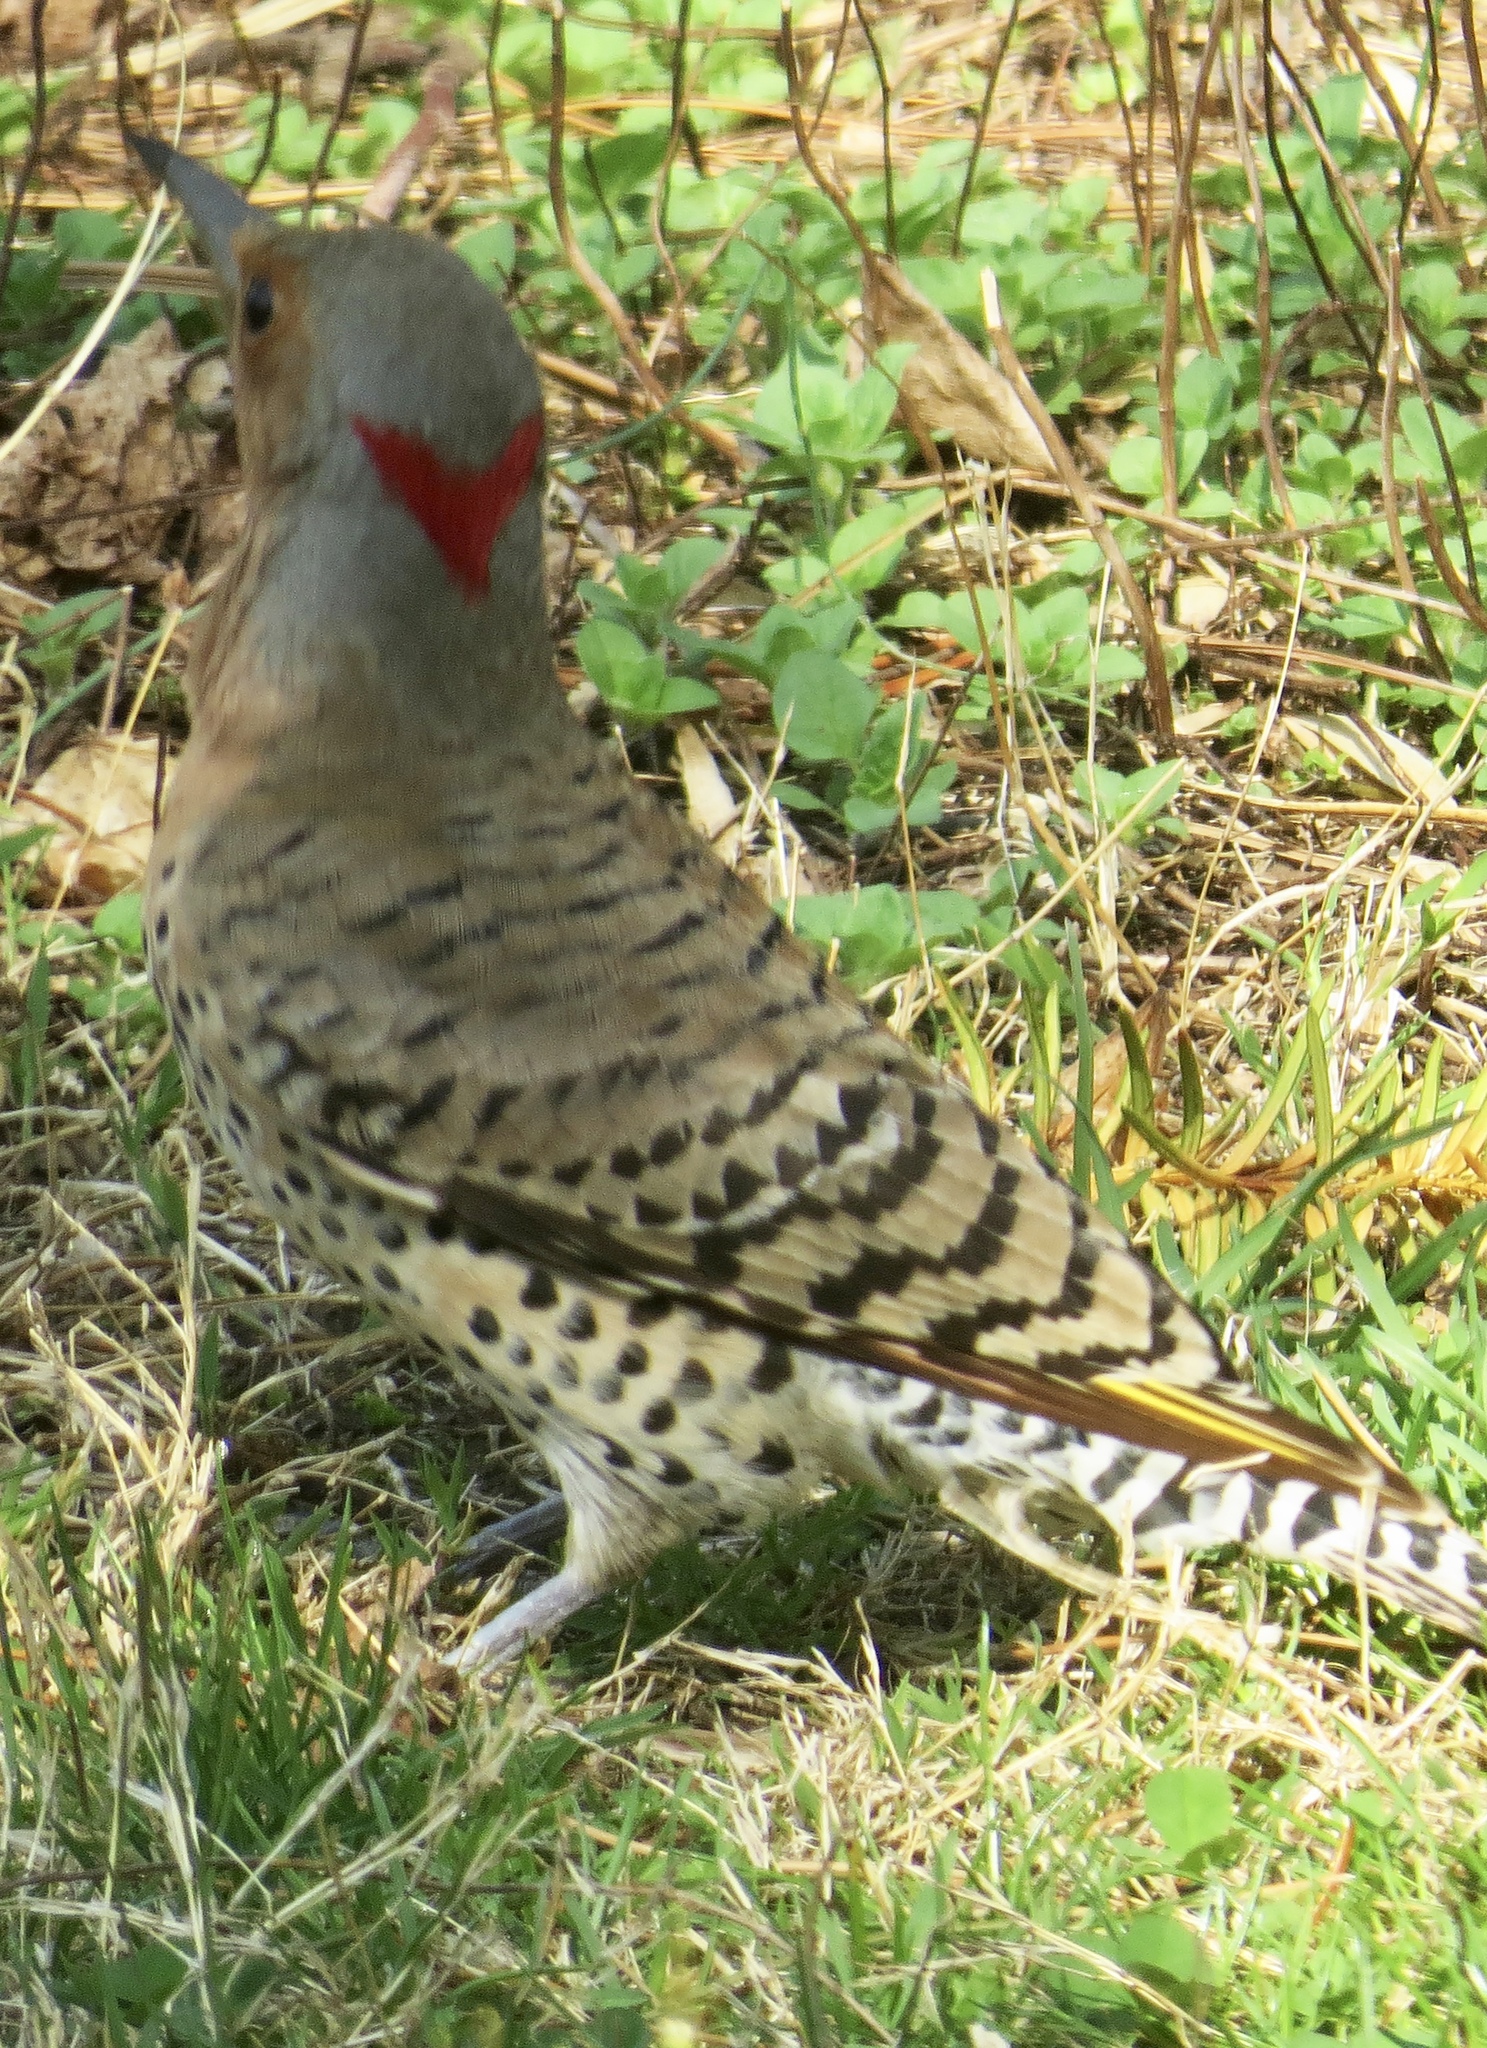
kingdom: Animalia
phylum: Chordata
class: Aves
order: Piciformes
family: Picidae
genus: Colaptes
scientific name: Colaptes auratus
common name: Northern flicker
